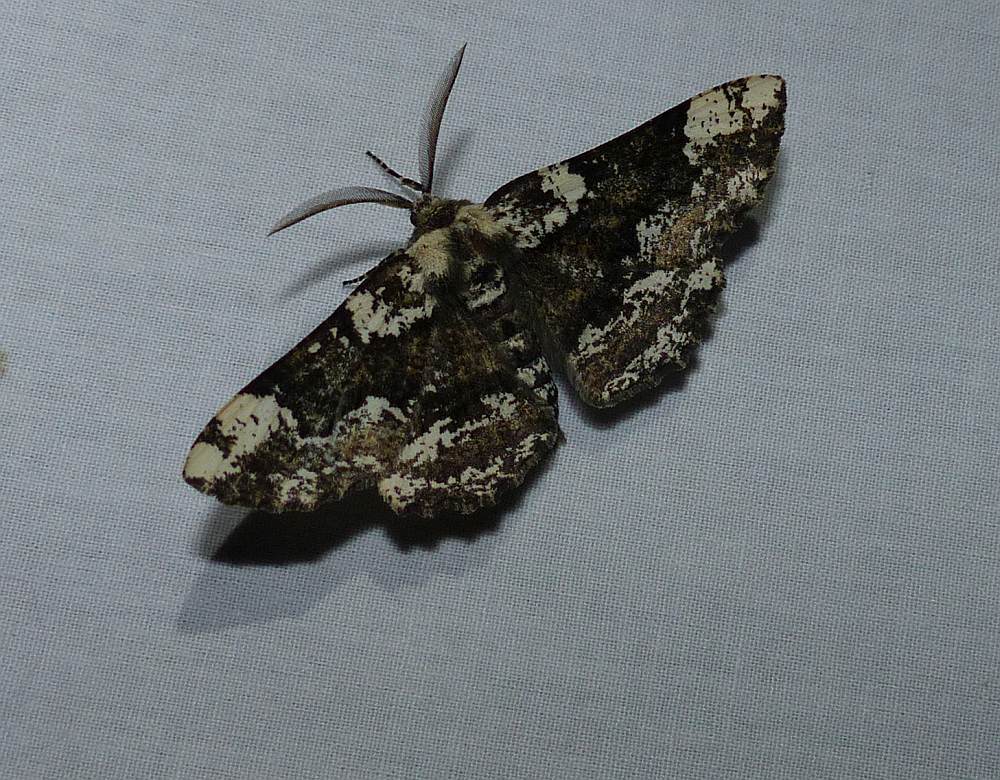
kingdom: Animalia
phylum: Arthropoda
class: Insecta
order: Lepidoptera
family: Geometridae
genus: Phaeoura
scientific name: Phaeoura quernaria
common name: Oak beauty
